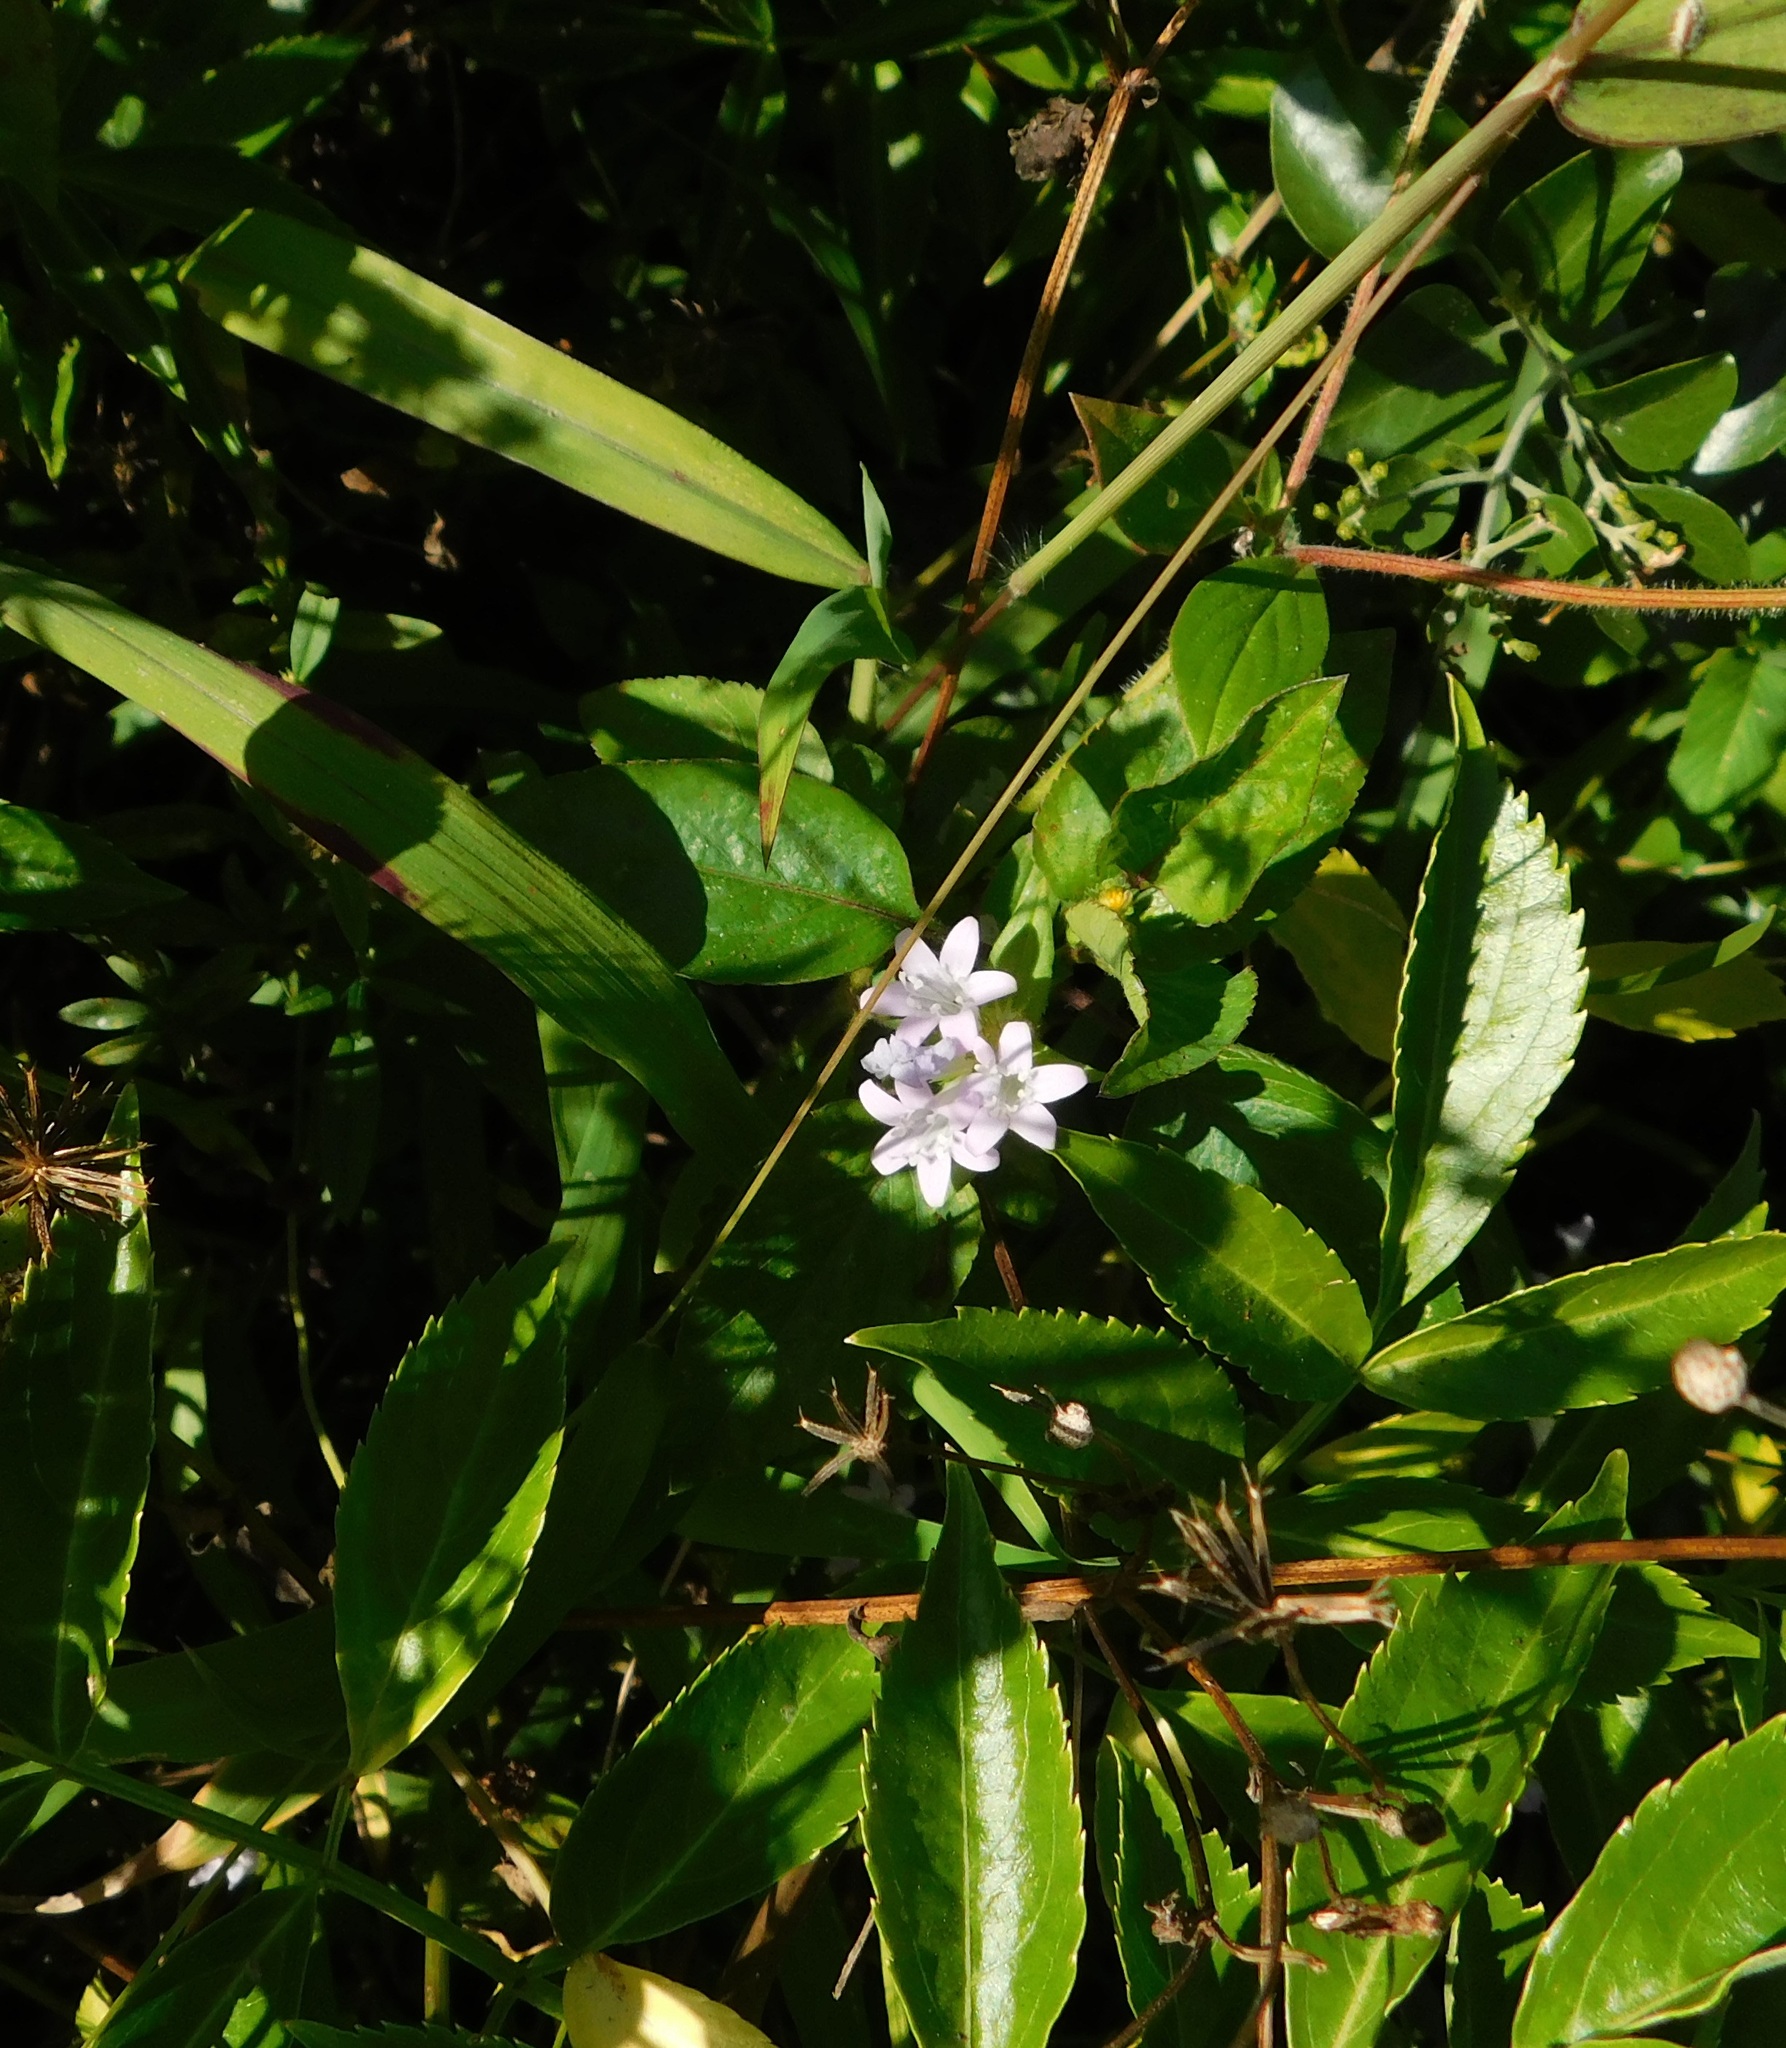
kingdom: Plantae
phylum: Tracheophyta
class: Magnoliopsida
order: Gentianales
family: Rubiaceae
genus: Richardia
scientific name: Richardia grandiflora
